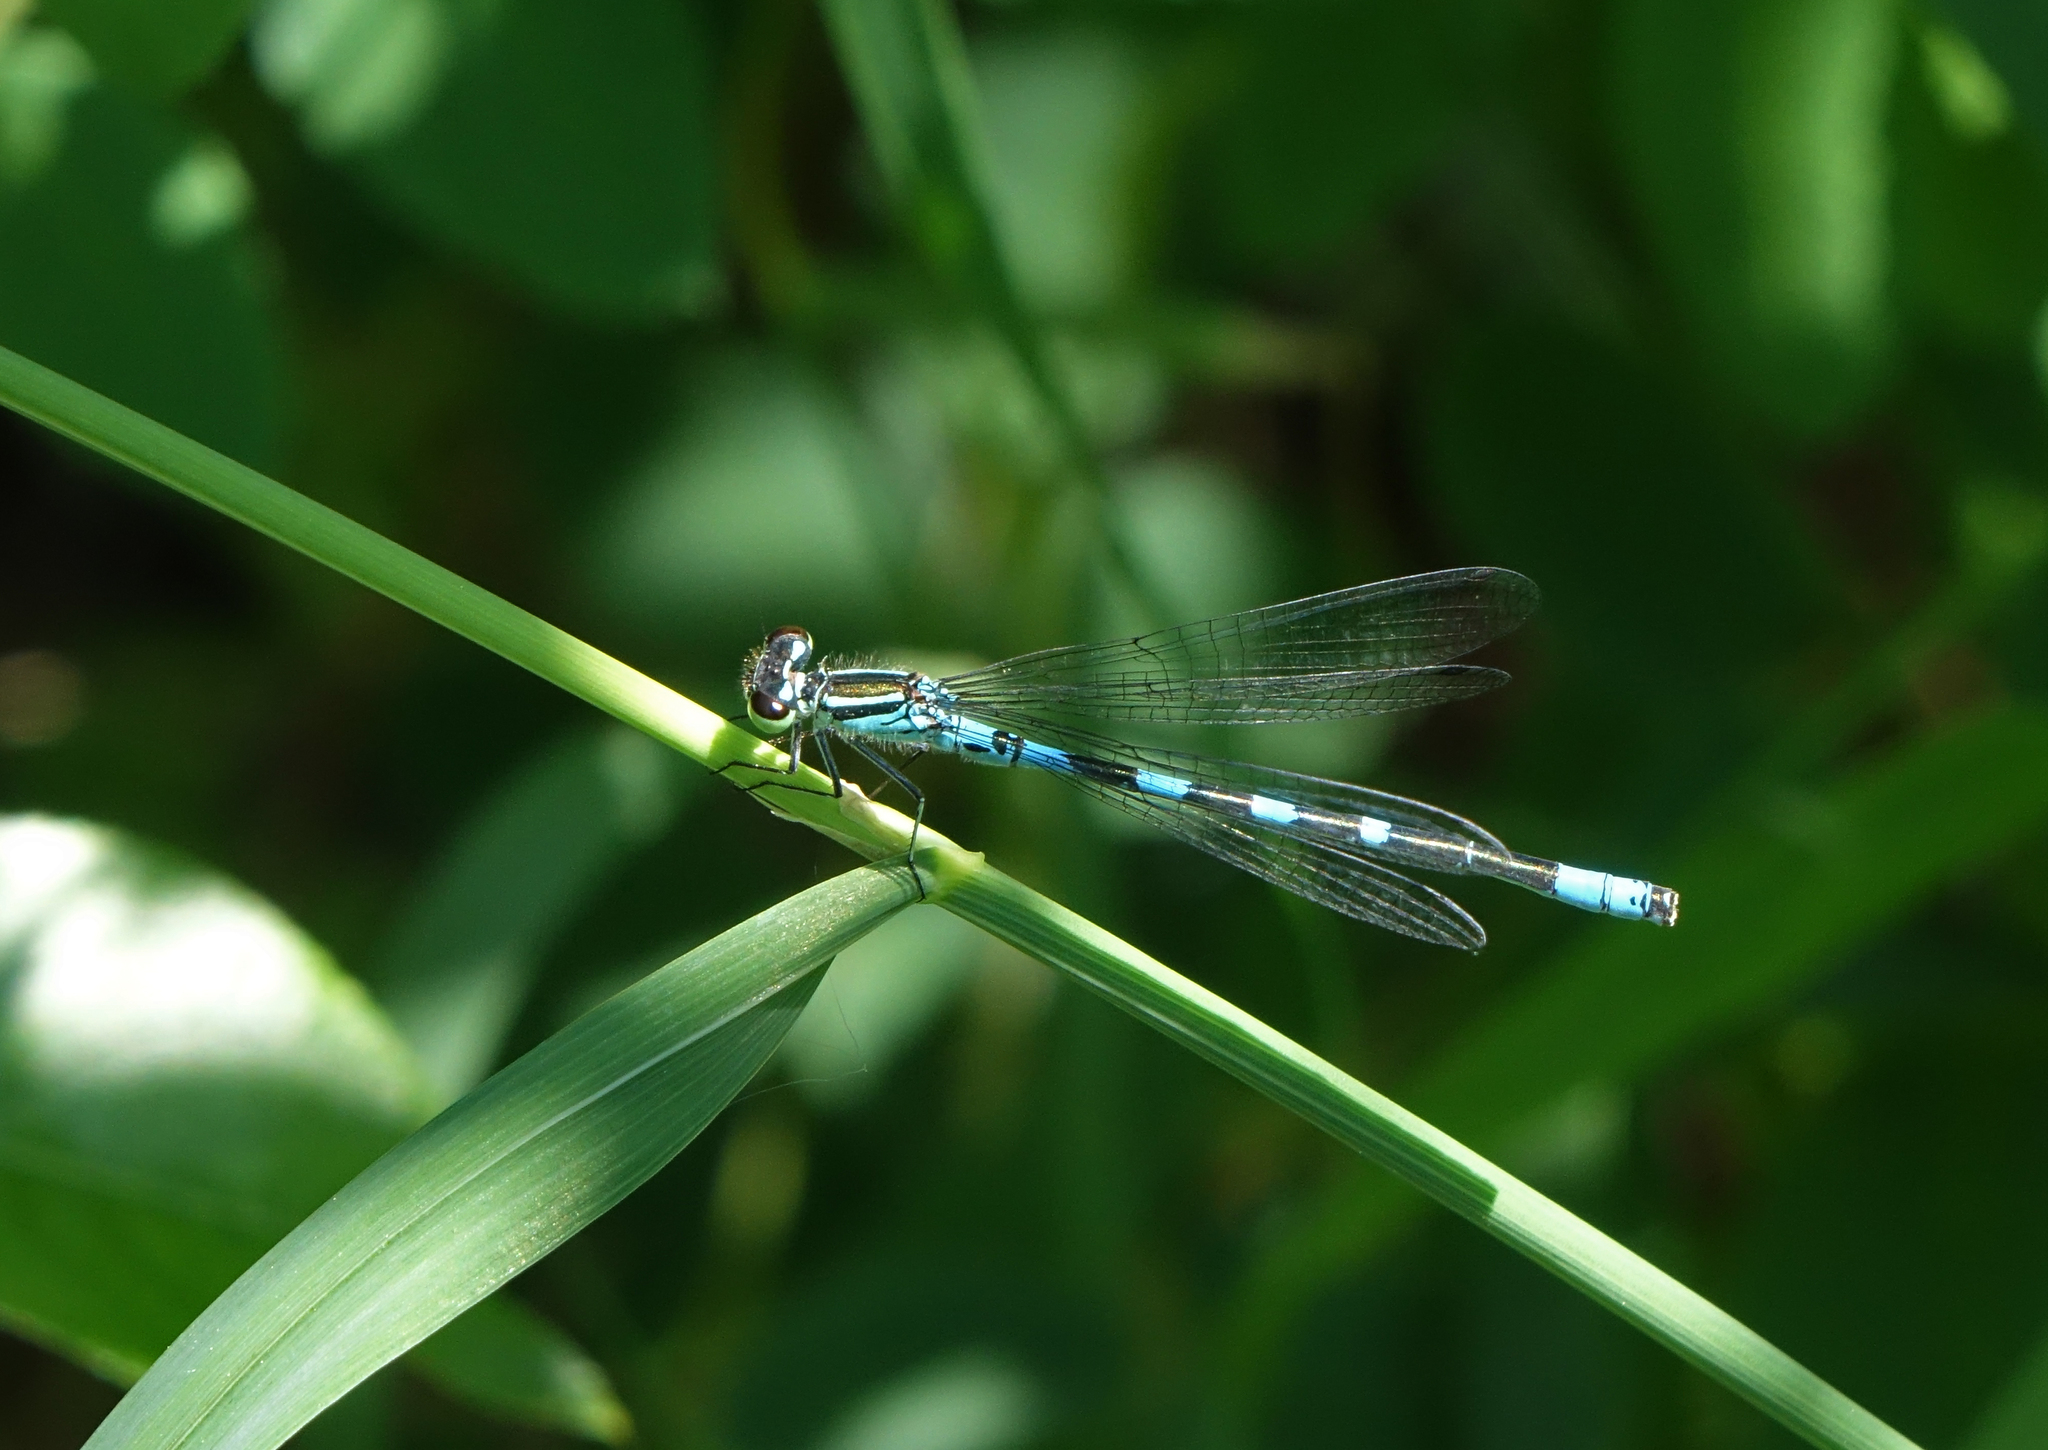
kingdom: Animalia
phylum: Arthropoda
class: Insecta
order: Odonata
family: Coenagrionidae
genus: Coenagrion
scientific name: Coenagrion hastulatum
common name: Spearhead bluet
